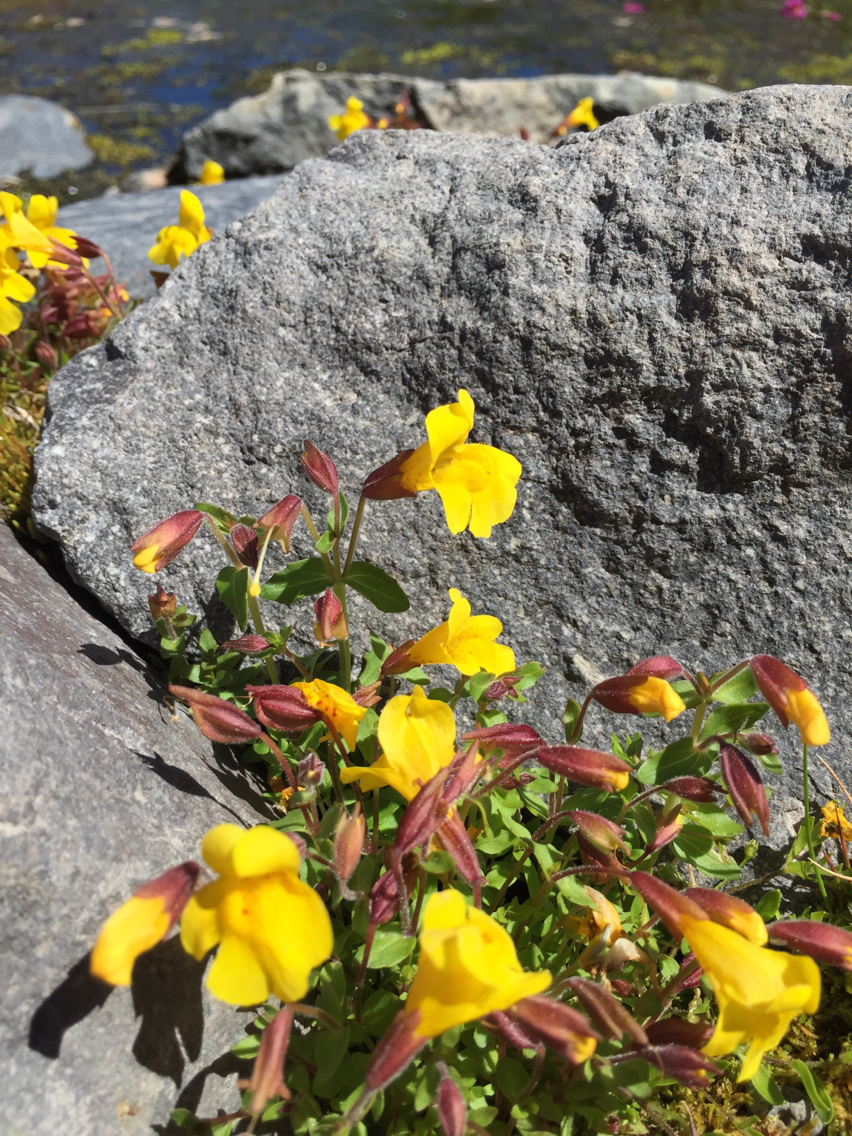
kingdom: Plantae
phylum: Tracheophyta
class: Magnoliopsida
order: Lamiales
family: Phrymaceae
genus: Erythranthe
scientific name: Erythranthe caespitosa
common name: Subalpine monkeyflower
